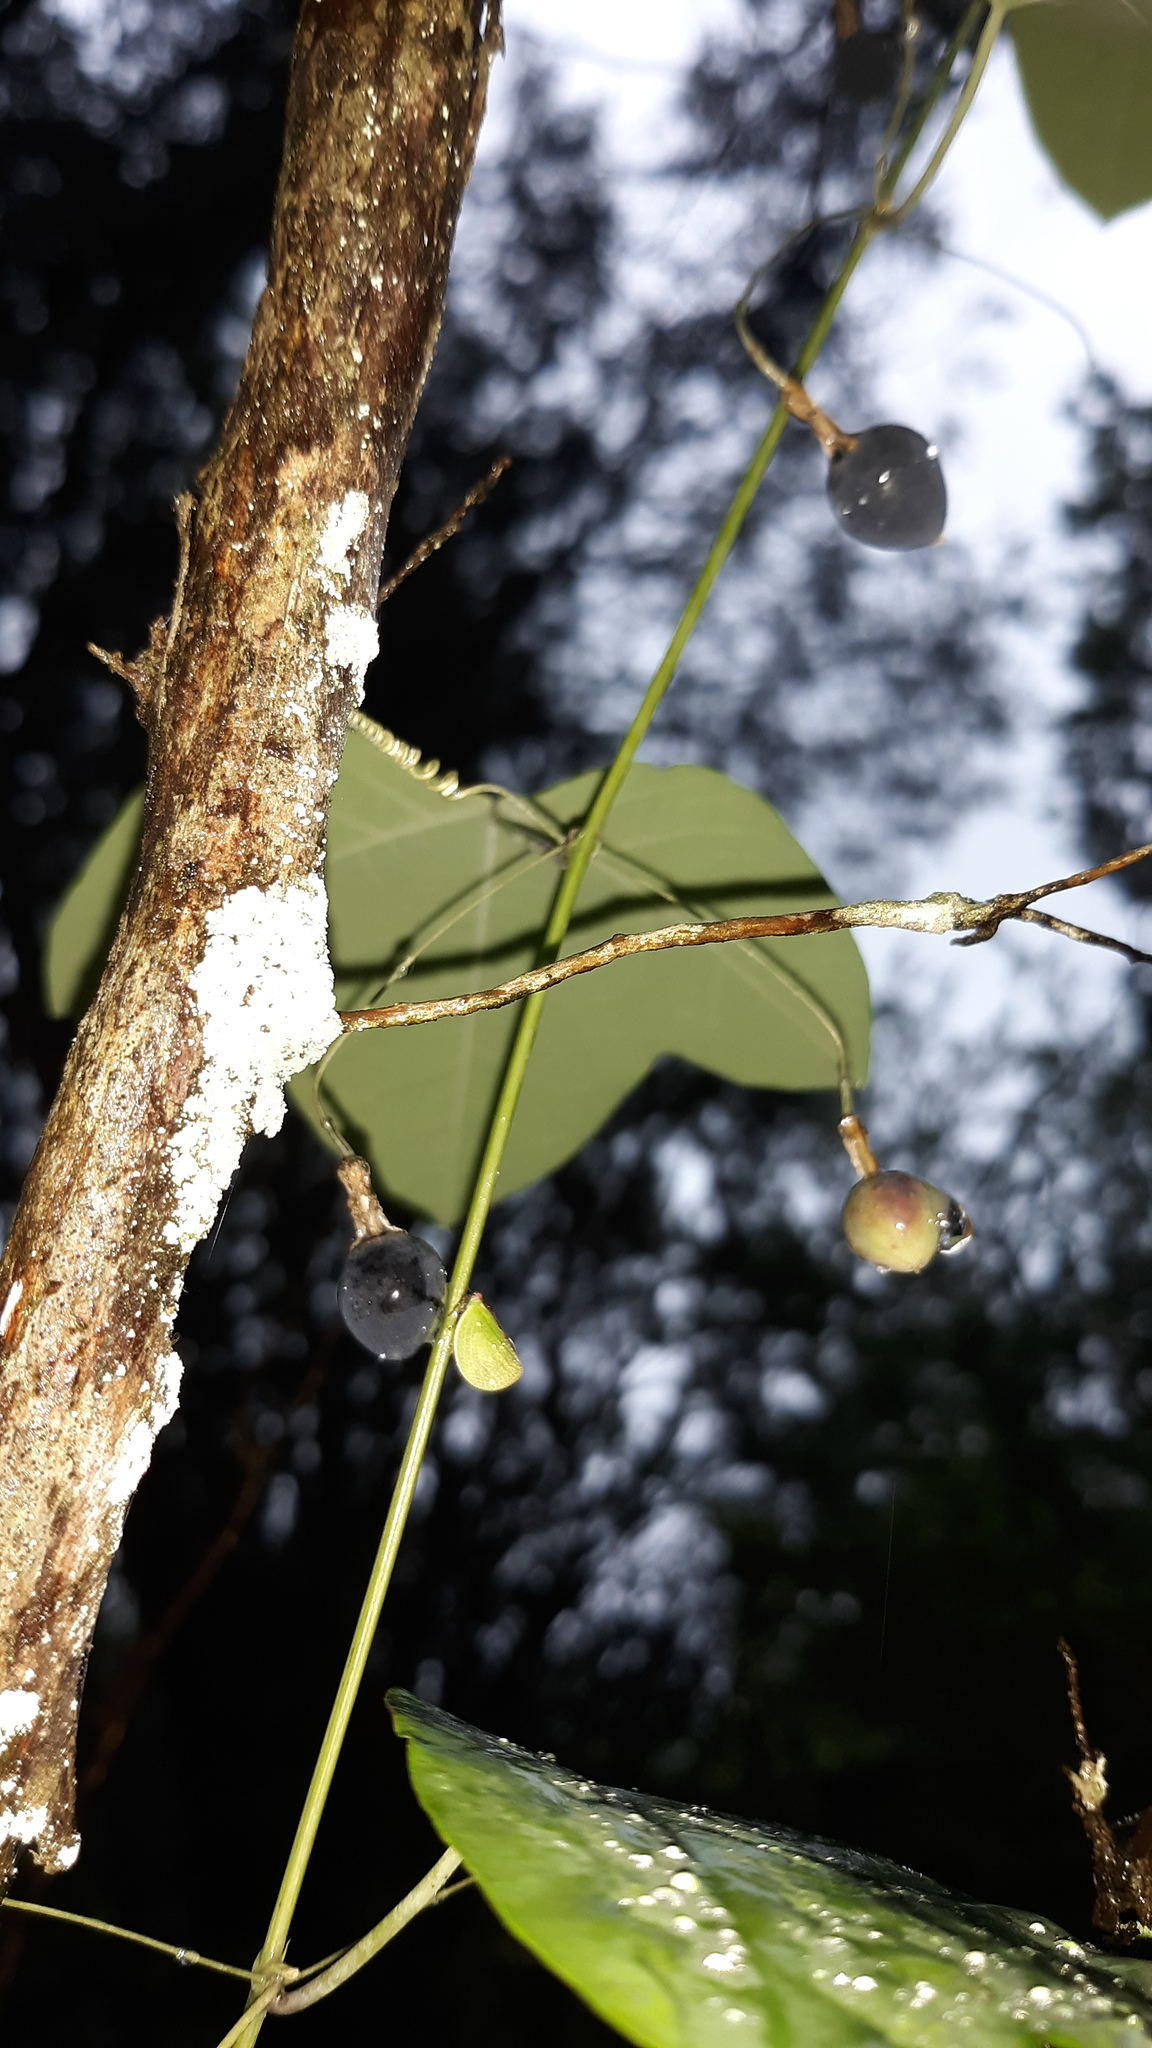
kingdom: Plantae
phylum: Tracheophyta
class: Magnoliopsida
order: Malpighiales
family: Passifloraceae
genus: Passiflora
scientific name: Passiflora lutea
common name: Yellow passionflower
